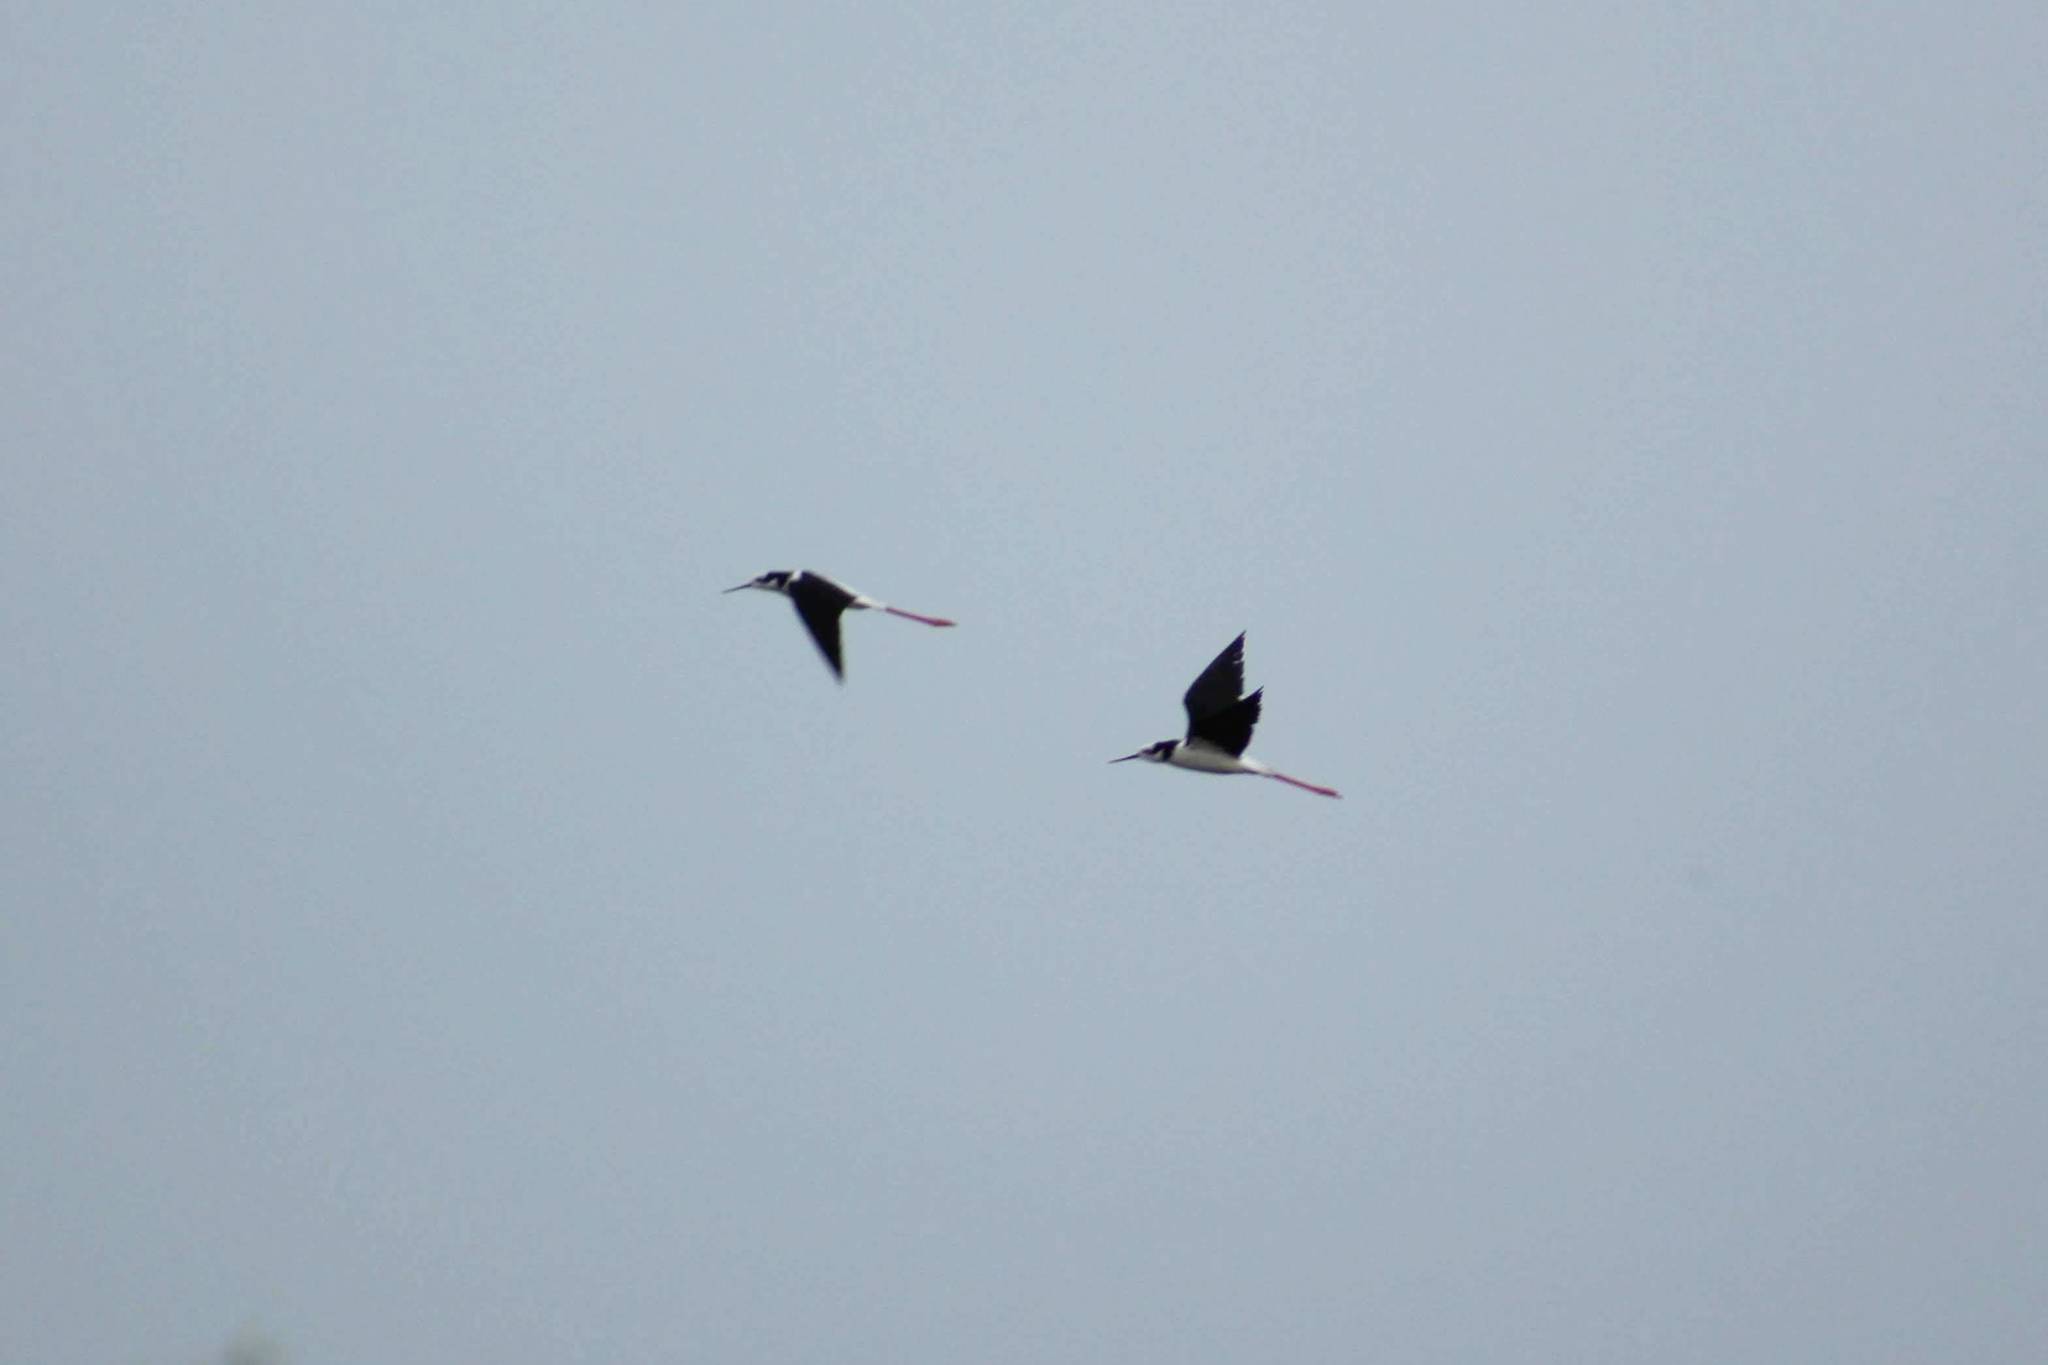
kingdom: Animalia
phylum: Chordata
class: Aves
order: Charadriiformes
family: Recurvirostridae
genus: Himantopus
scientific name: Himantopus mexicanus
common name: Black-necked stilt
